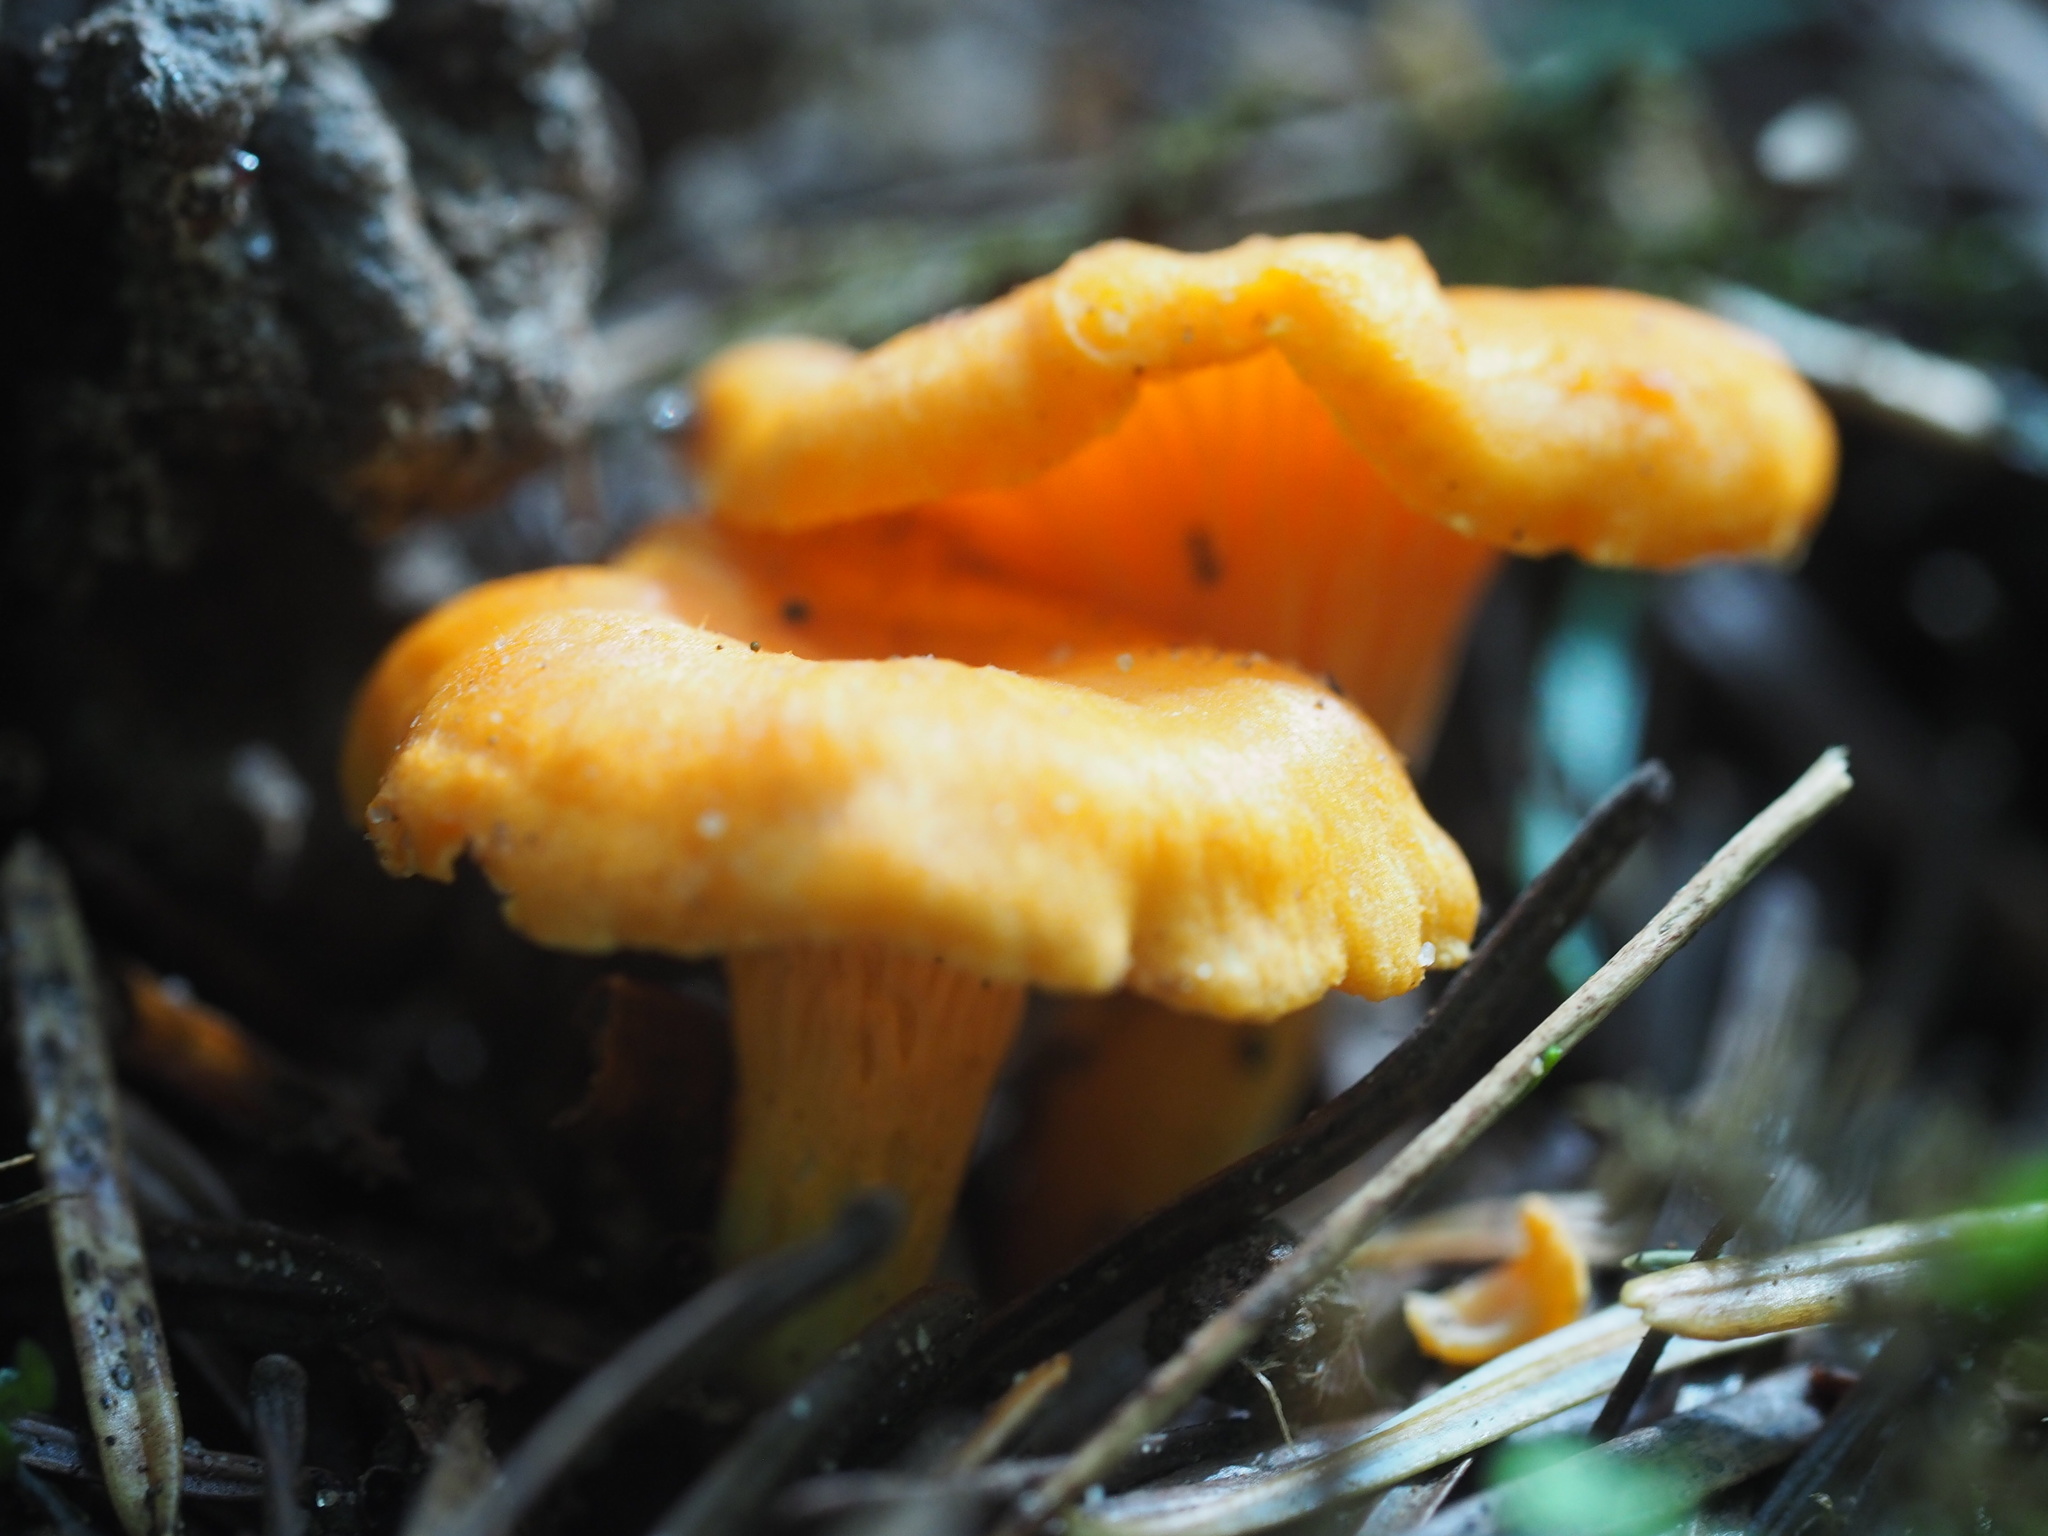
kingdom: Fungi
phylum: Basidiomycota
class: Agaricomycetes
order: Cantharellales
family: Hydnaceae
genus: Cantharellus
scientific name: Cantharellus cibarius
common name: Chanterelle
